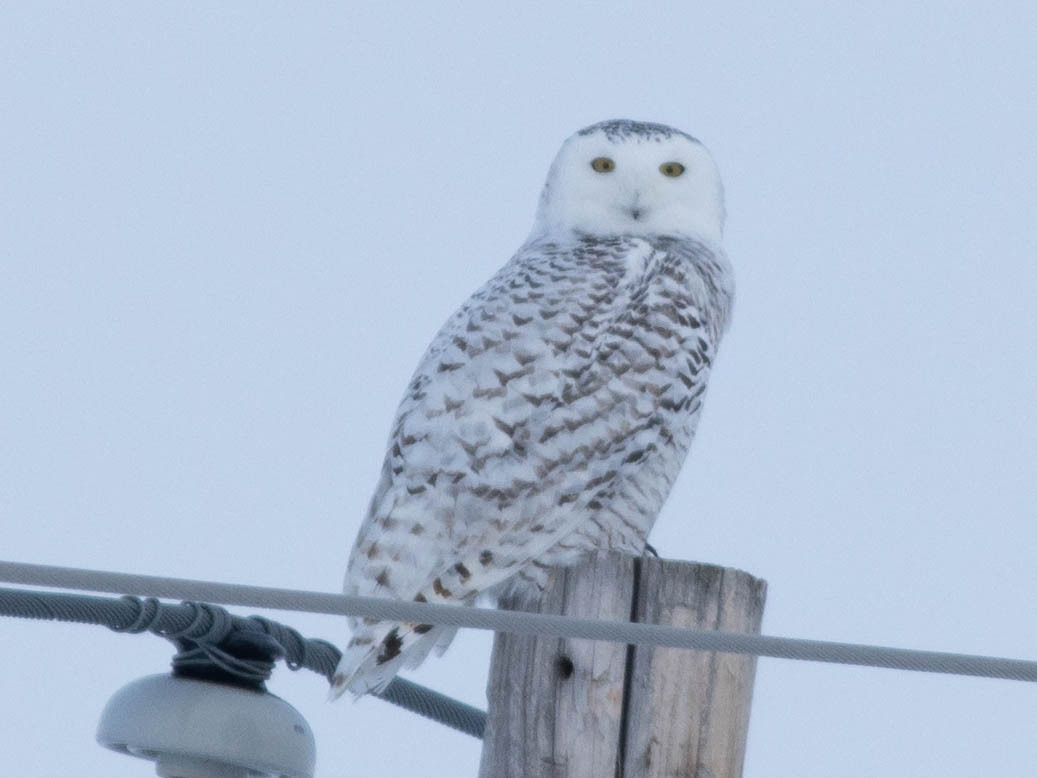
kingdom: Animalia
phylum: Chordata
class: Aves
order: Strigiformes
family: Strigidae
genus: Bubo
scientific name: Bubo scandiacus
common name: Snowy owl
